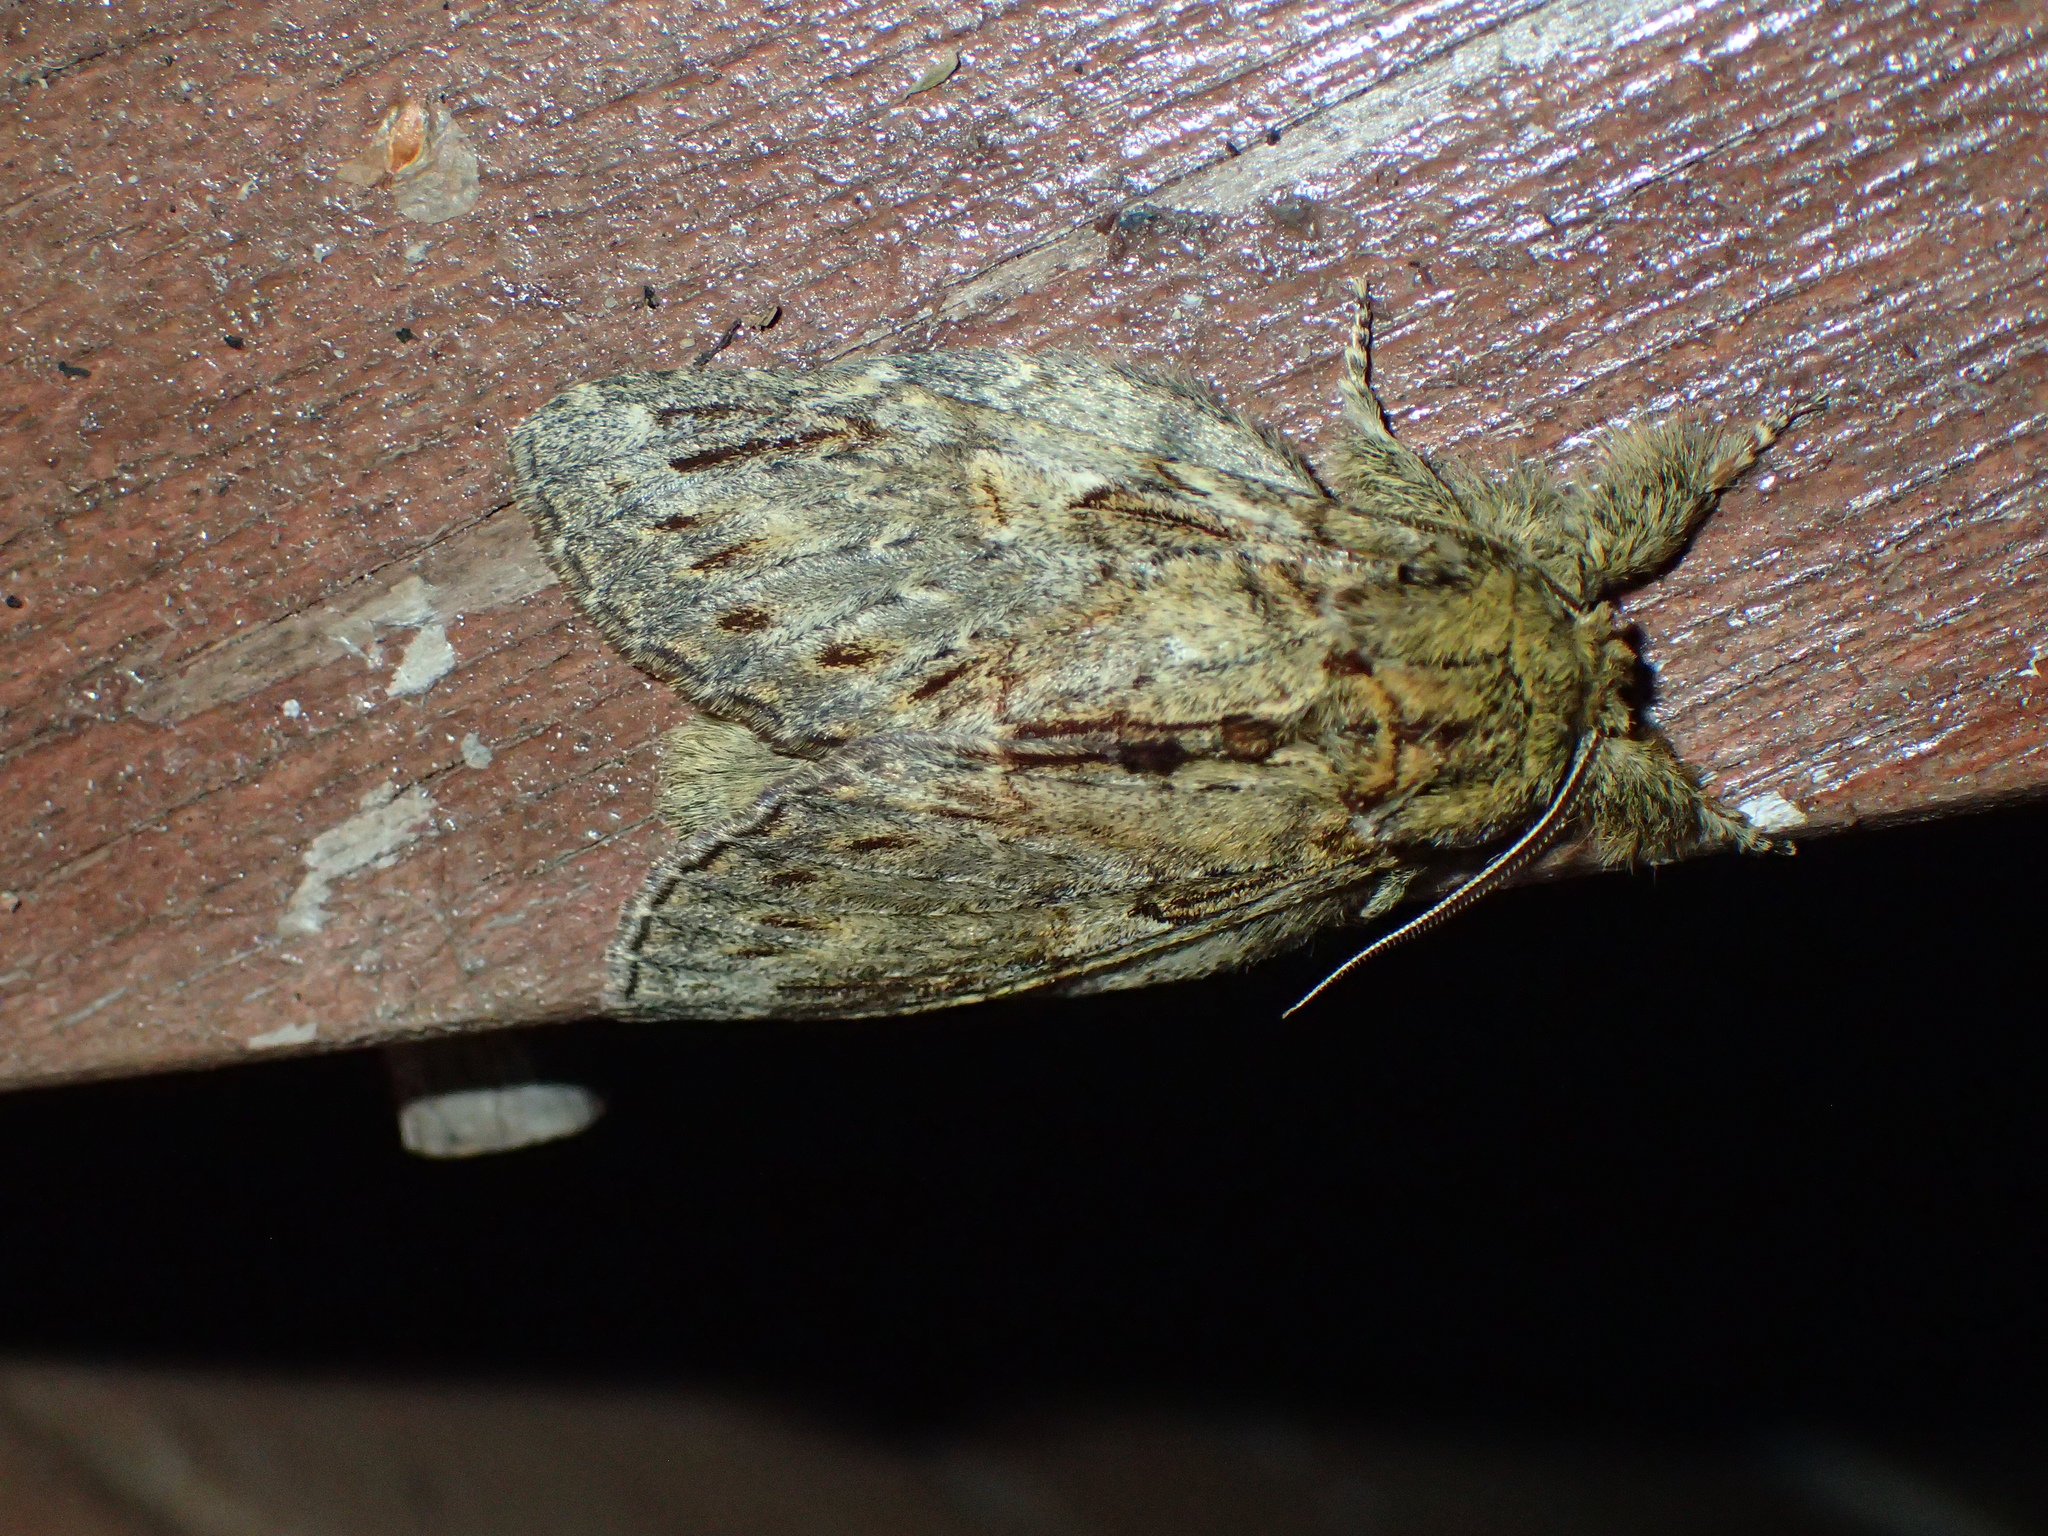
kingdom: Animalia
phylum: Arthropoda
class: Insecta
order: Lepidoptera
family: Notodontidae
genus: Peridea
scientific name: Peridea anceps
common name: Great prominent
